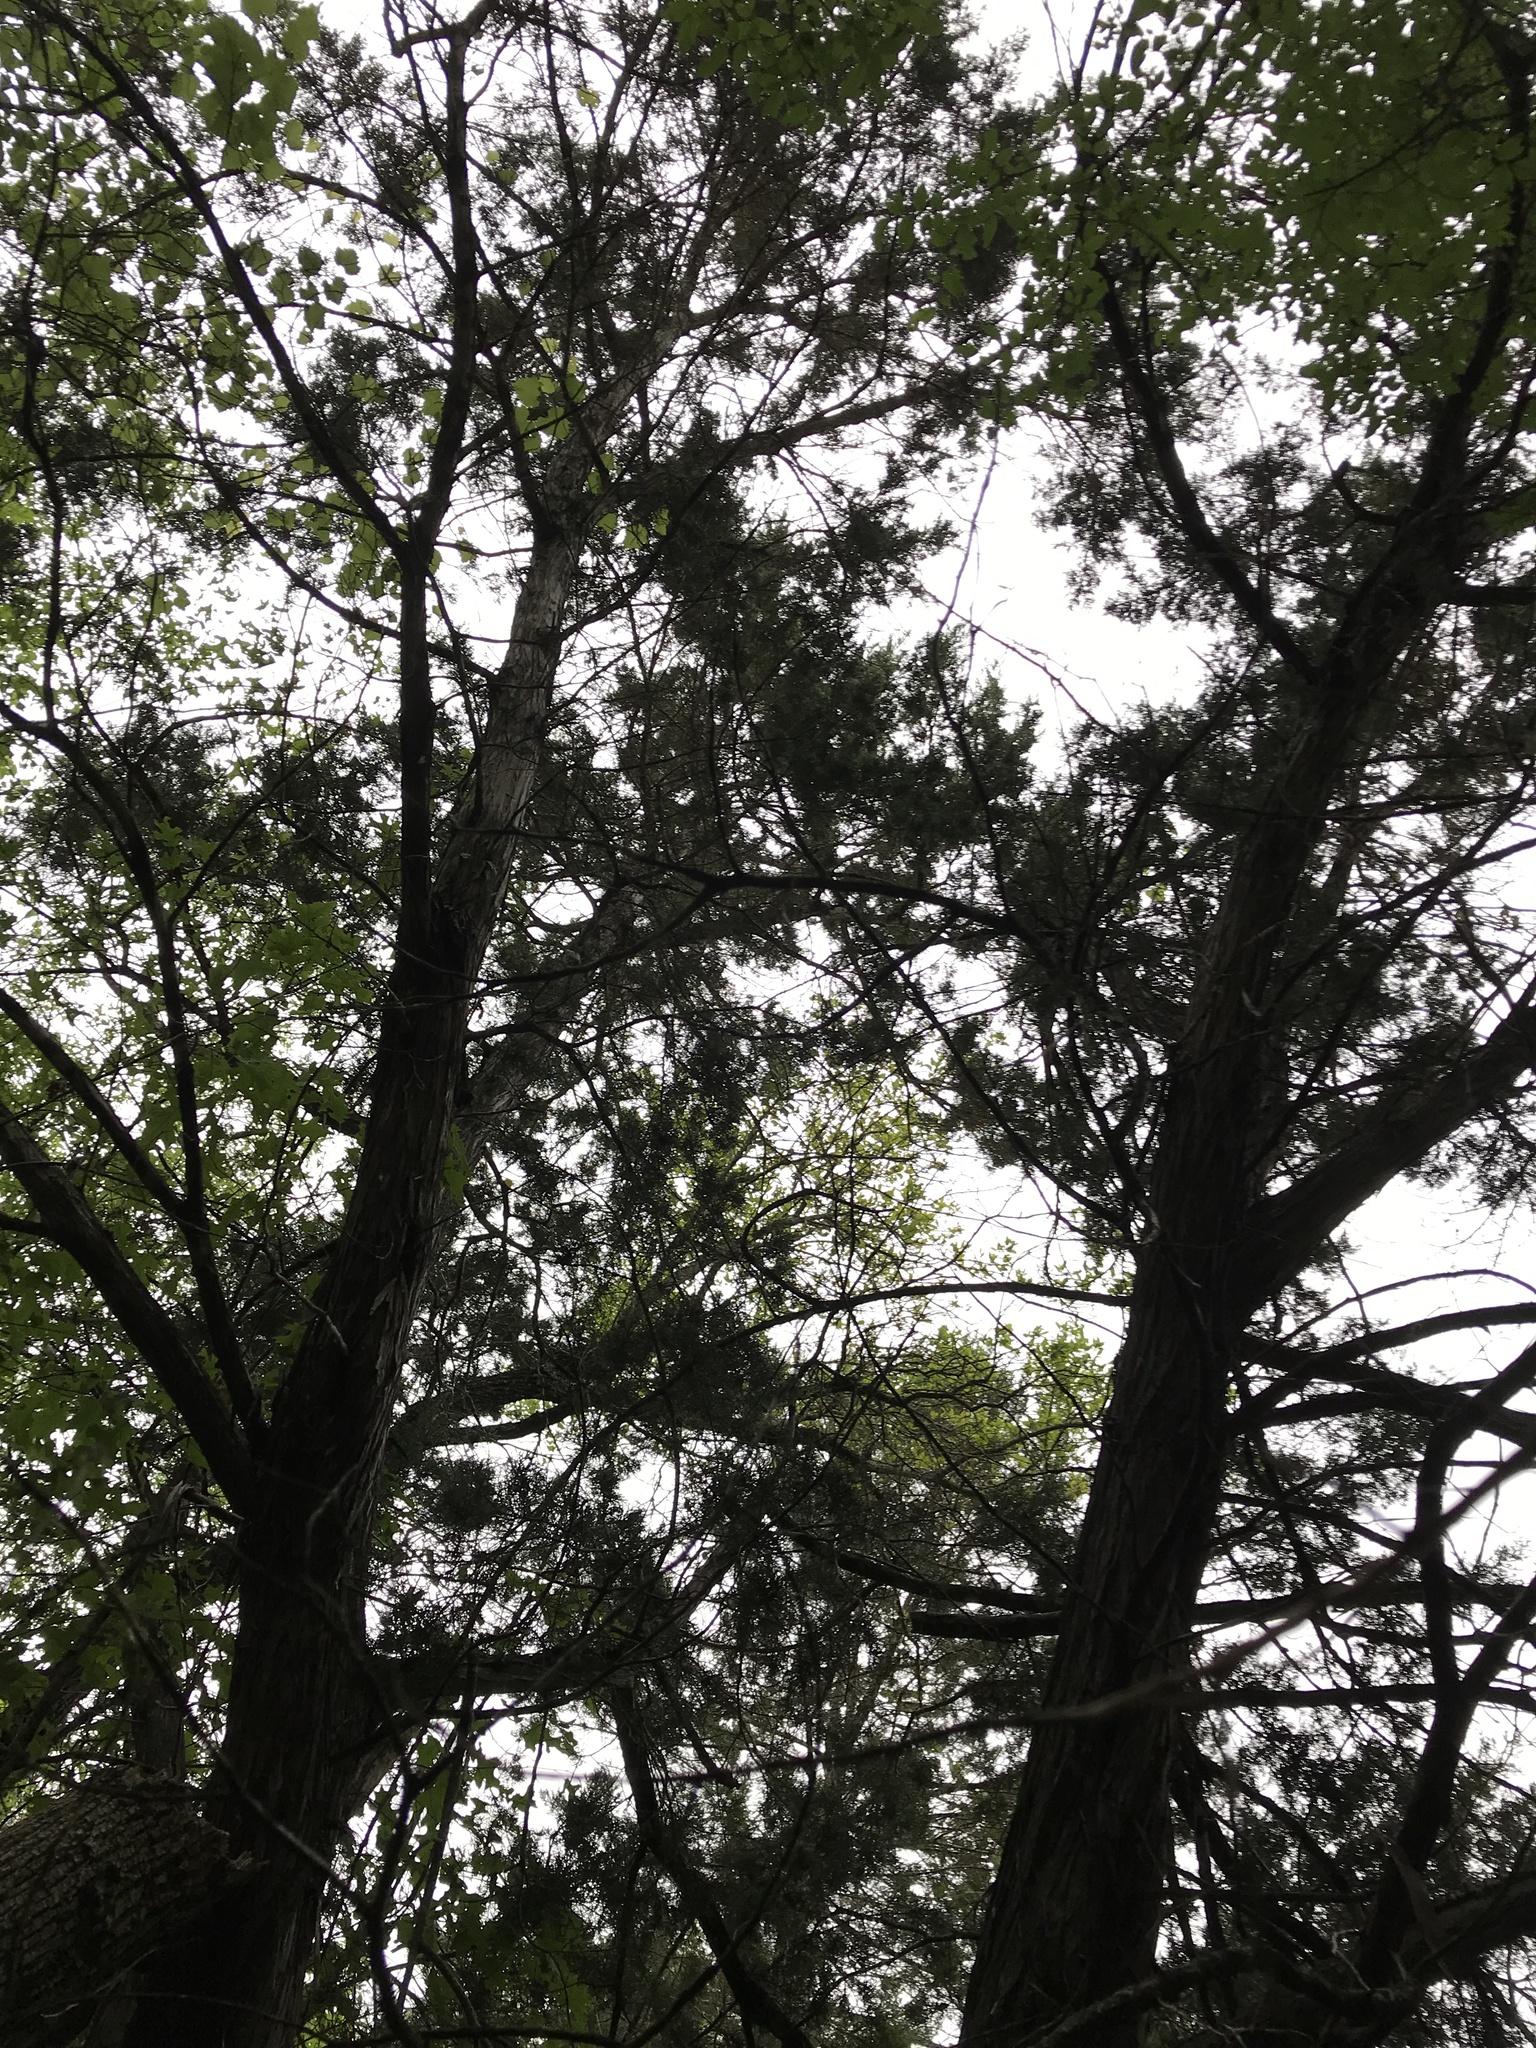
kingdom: Plantae
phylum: Tracheophyta
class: Pinopsida
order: Pinales
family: Cupressaceae
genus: Juniperus
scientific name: Juniperus ashei
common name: Mexican juniper
